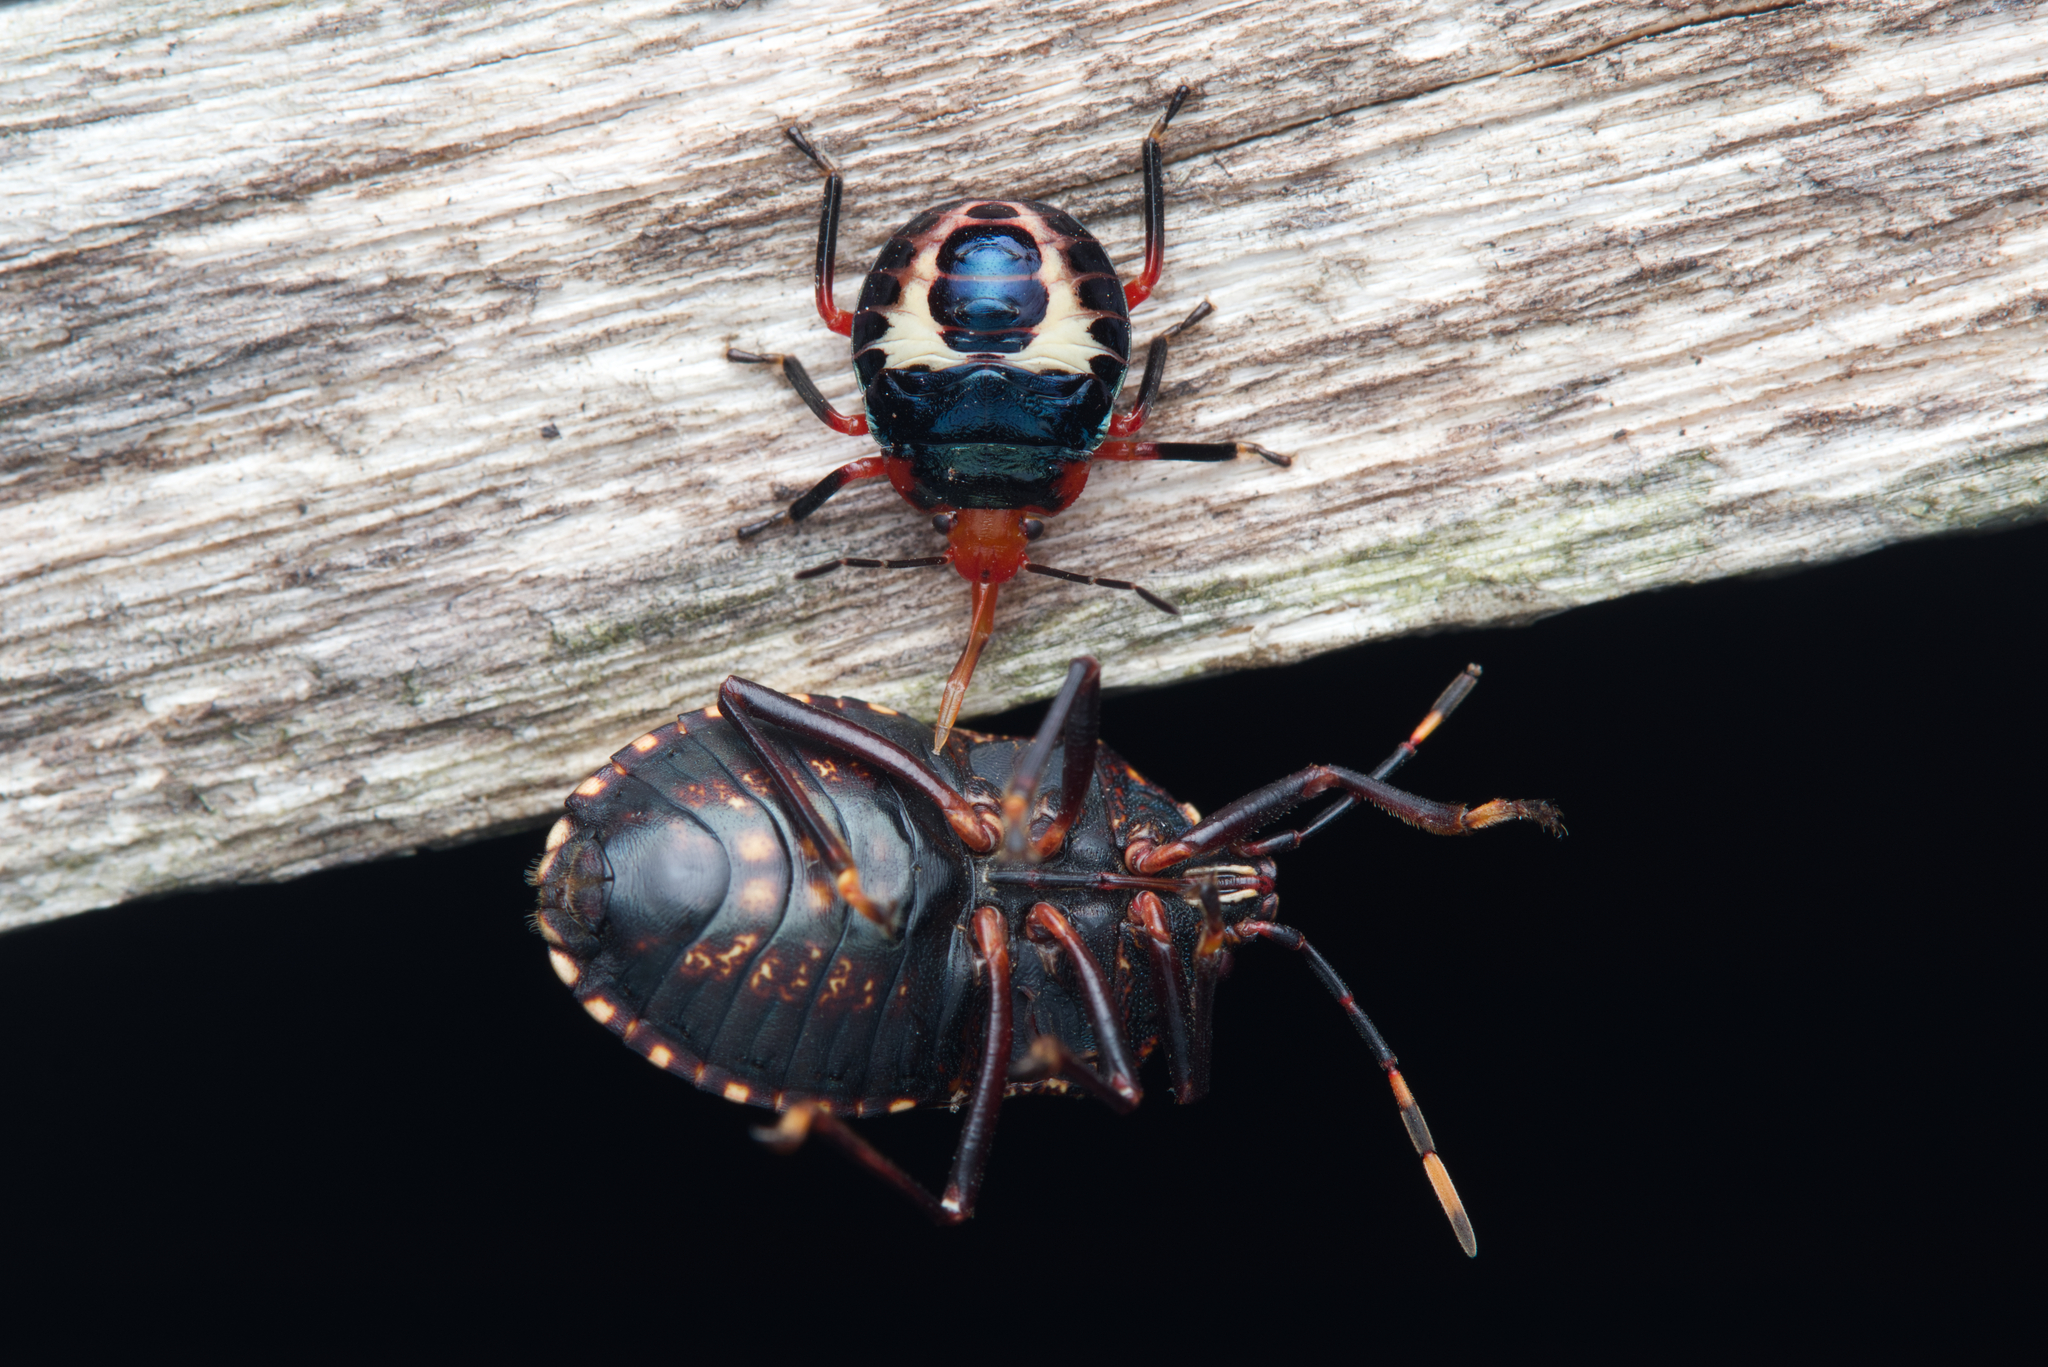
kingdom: Animalia
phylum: Arthropoda
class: Insecta
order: Hemiptera
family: Pentatomidae
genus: Amyotea
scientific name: Amyotea
